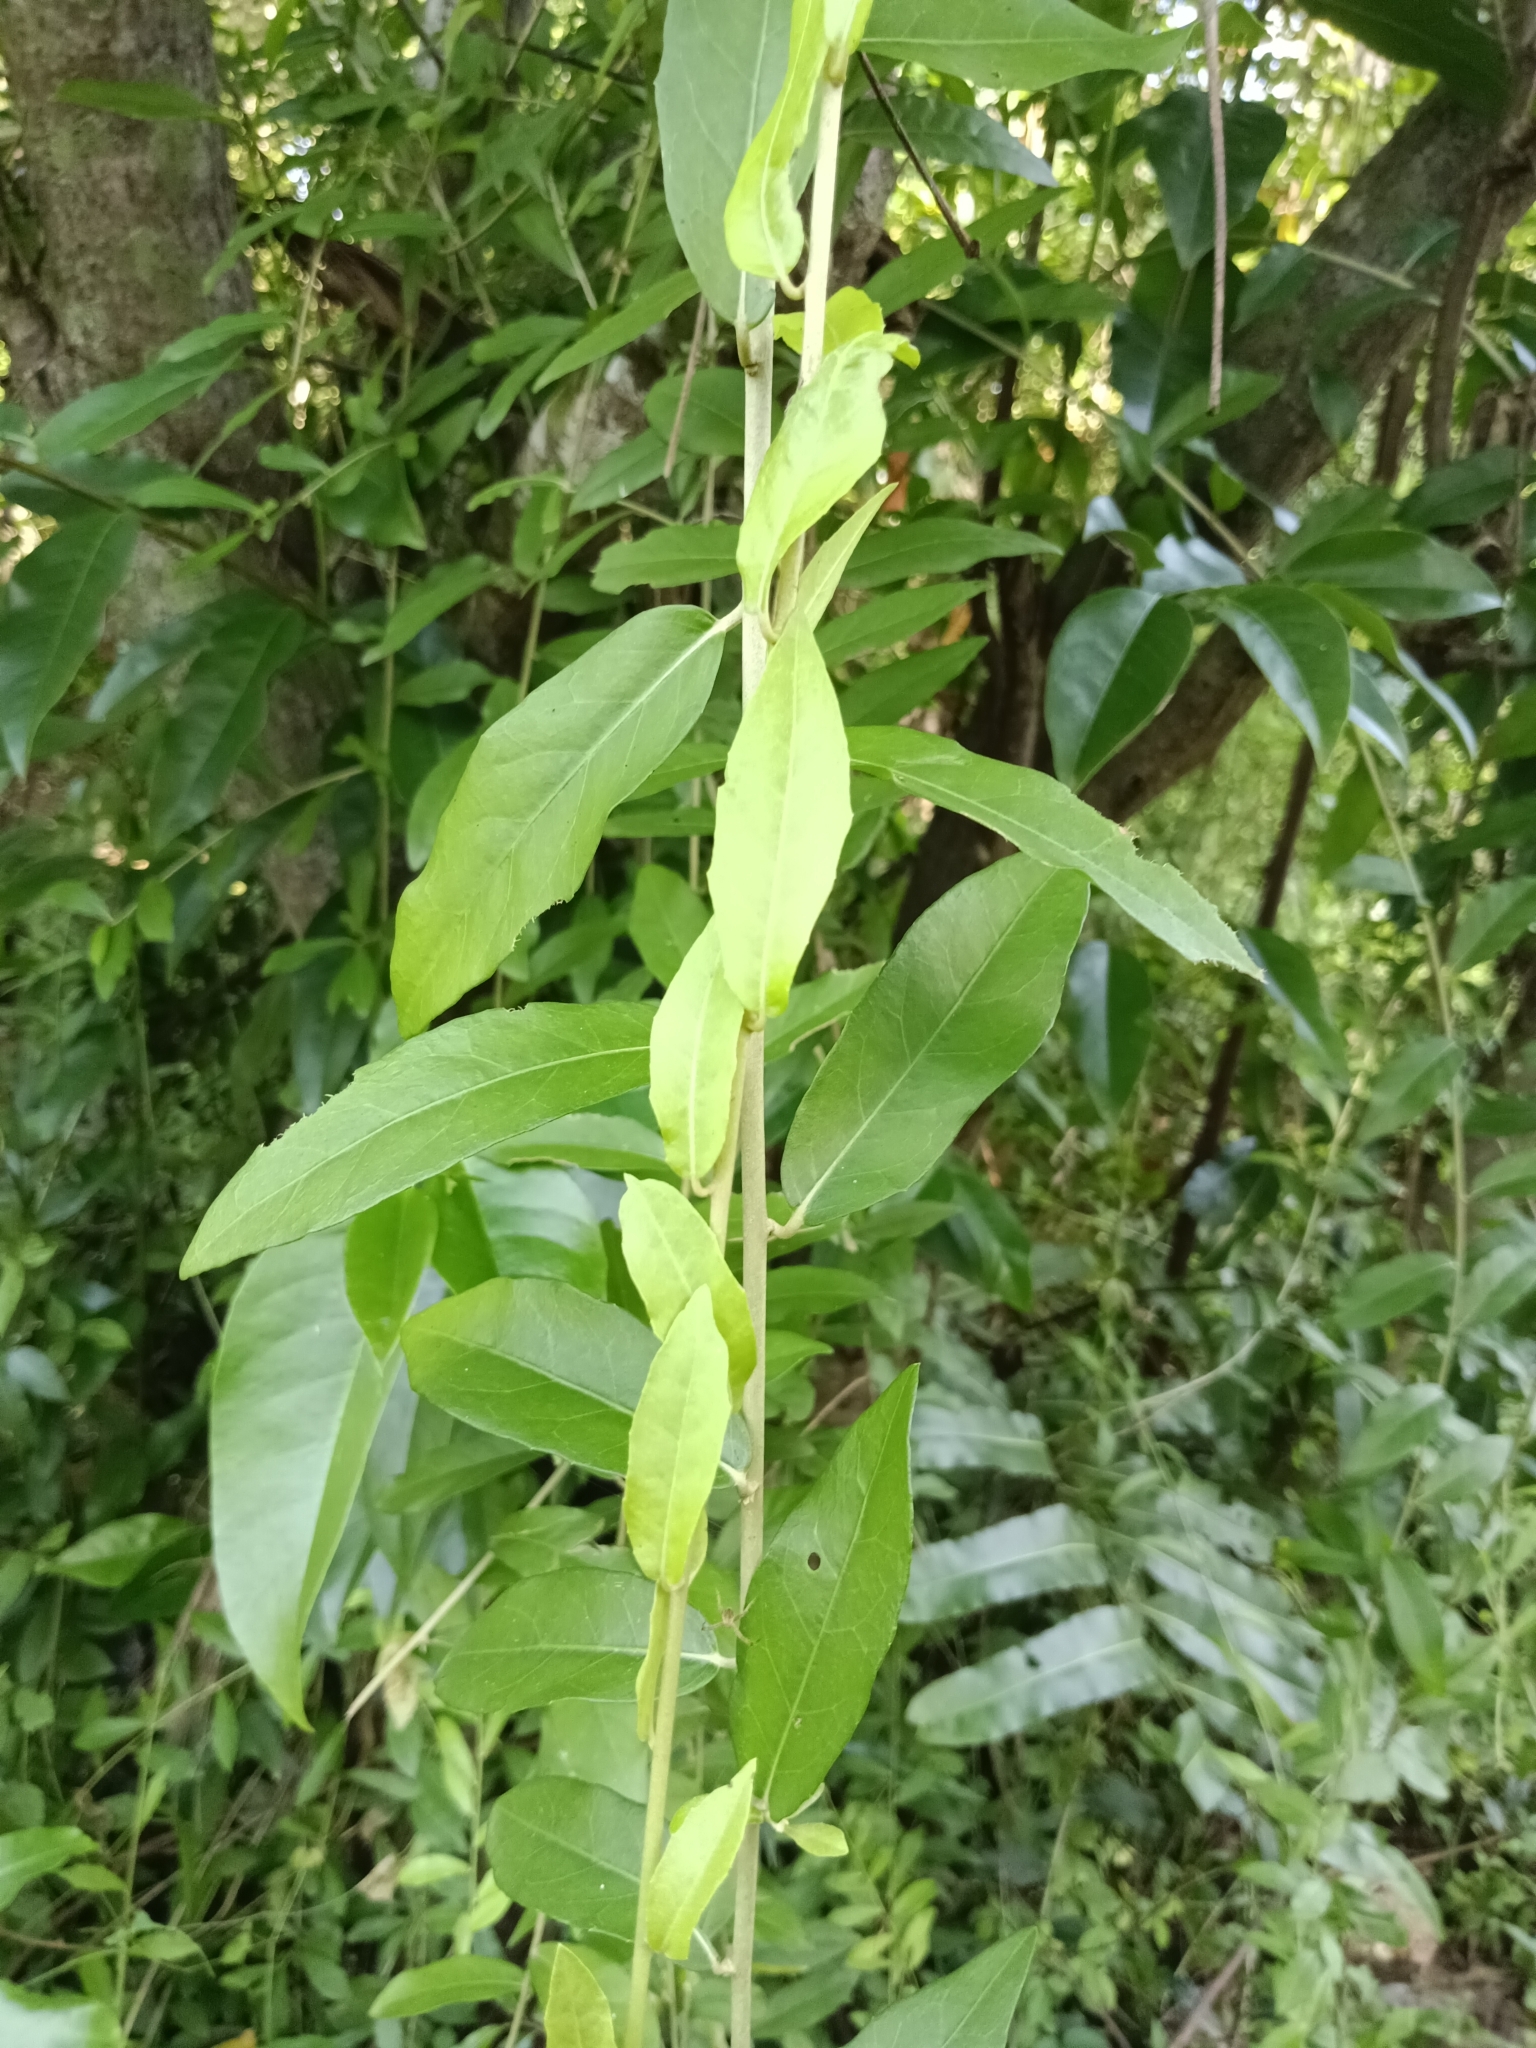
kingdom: Plantae
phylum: Tracheophyta
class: Magnoliopsida
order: Asterales
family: Asteraceae
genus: Tarlmounia
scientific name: Tarlmounia elliptica
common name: Kheua sa lot
